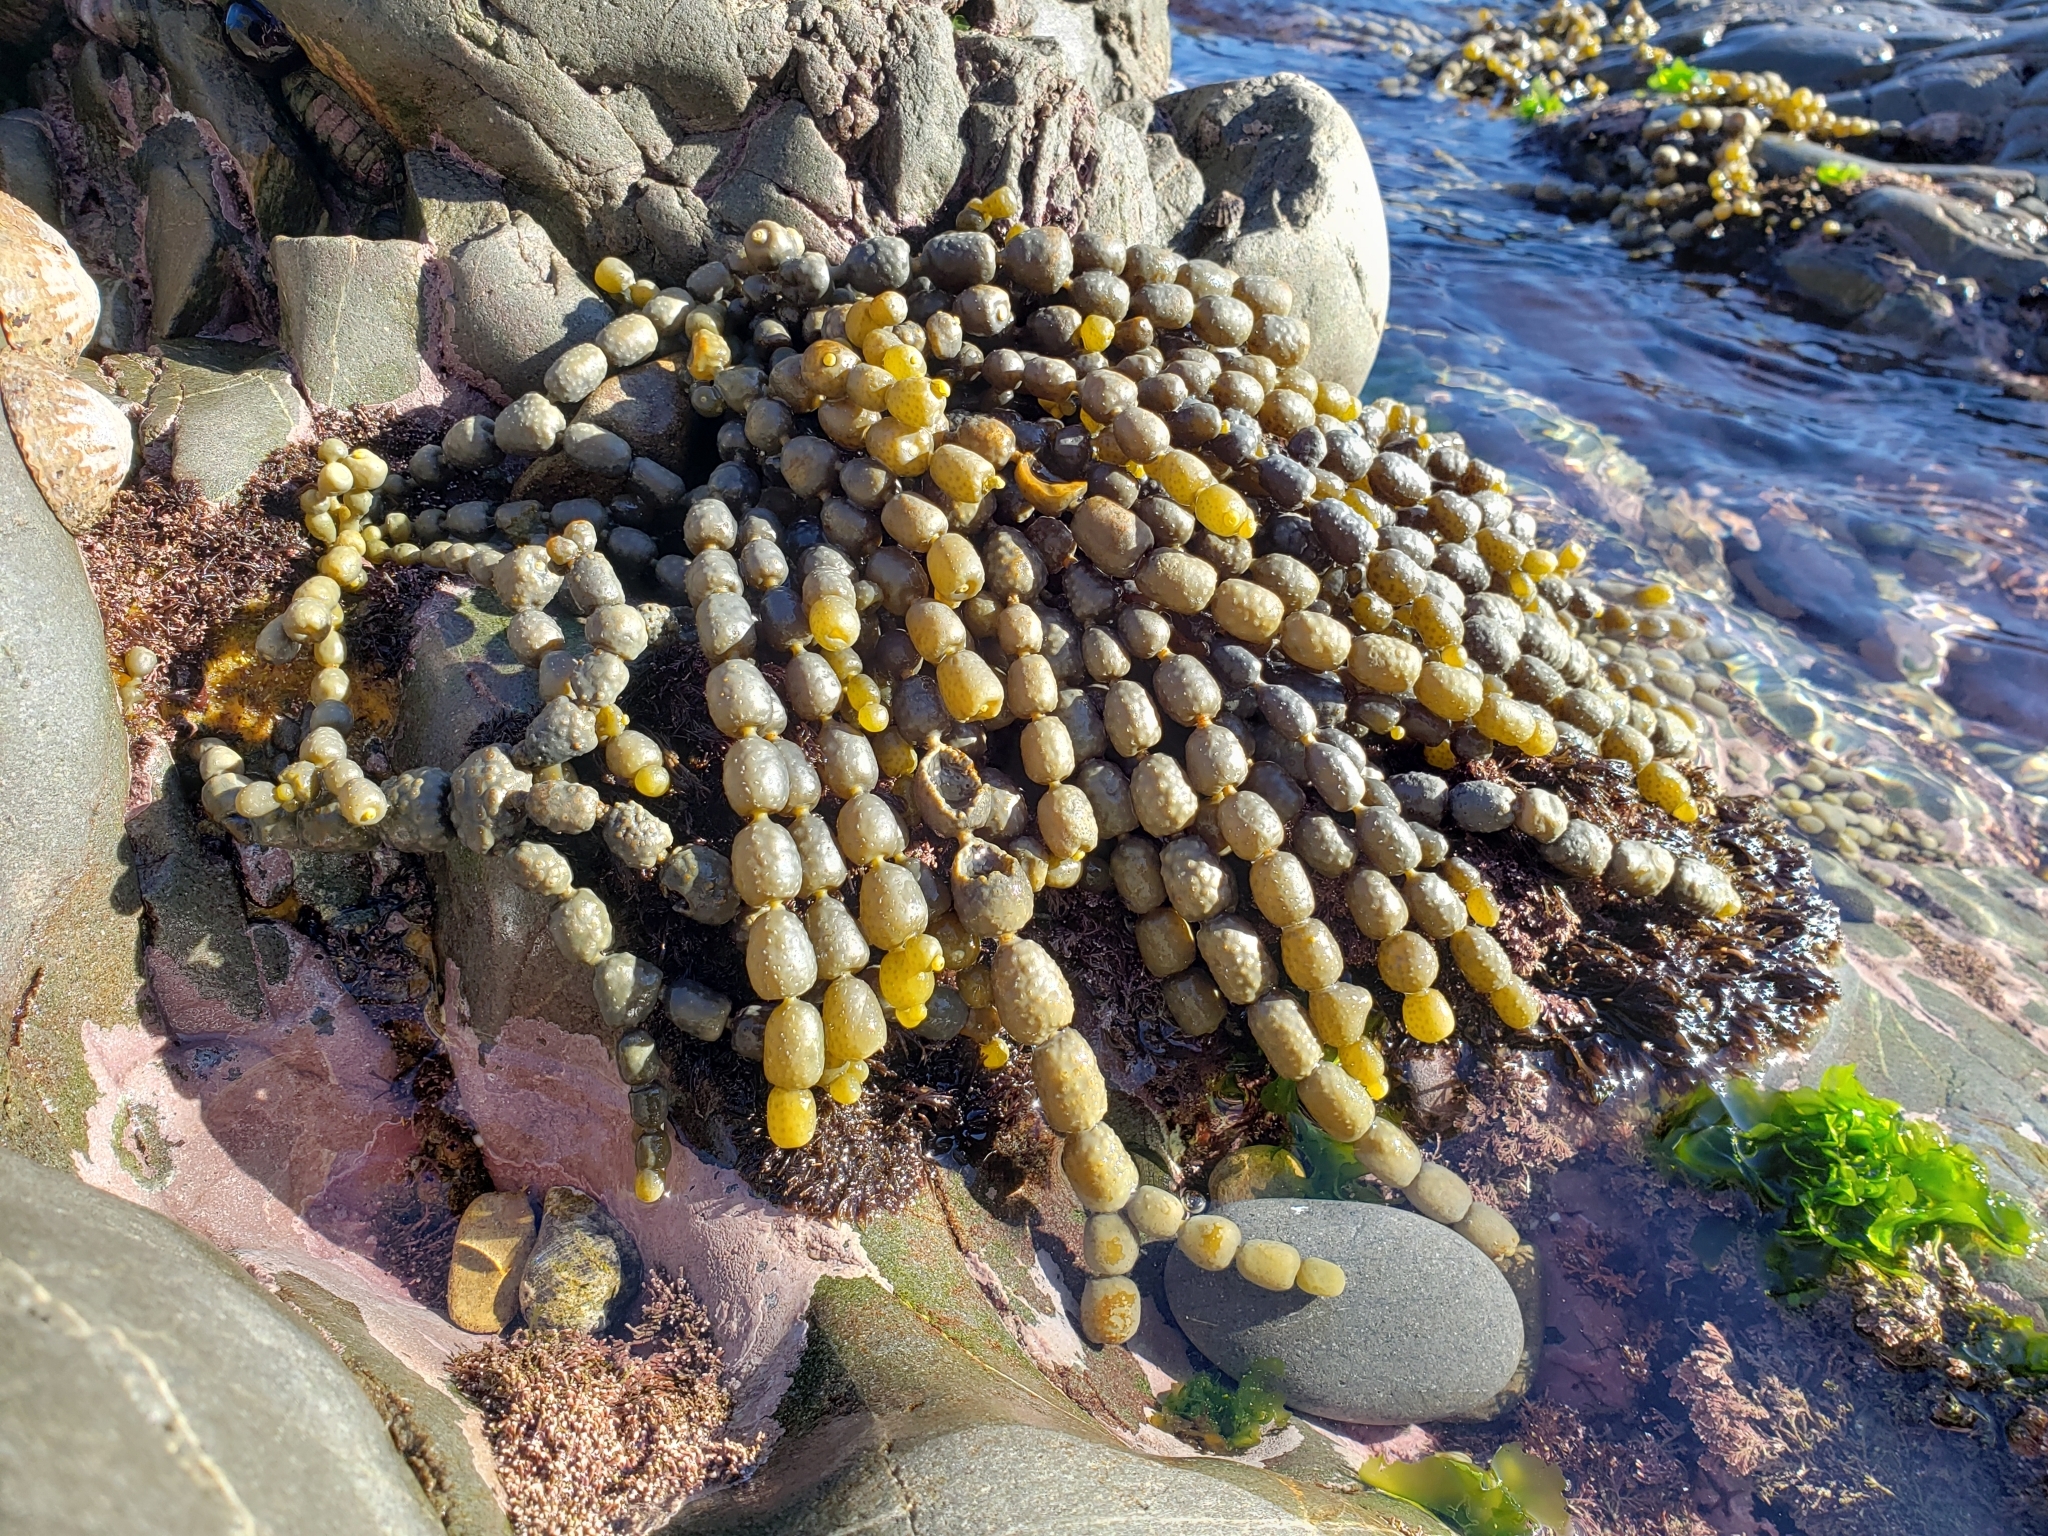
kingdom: Chromista
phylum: Ochrophyta
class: Phaeophyceae
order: Fucales
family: Hormosiraceae
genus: Hormosira
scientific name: Hormosira banksii
